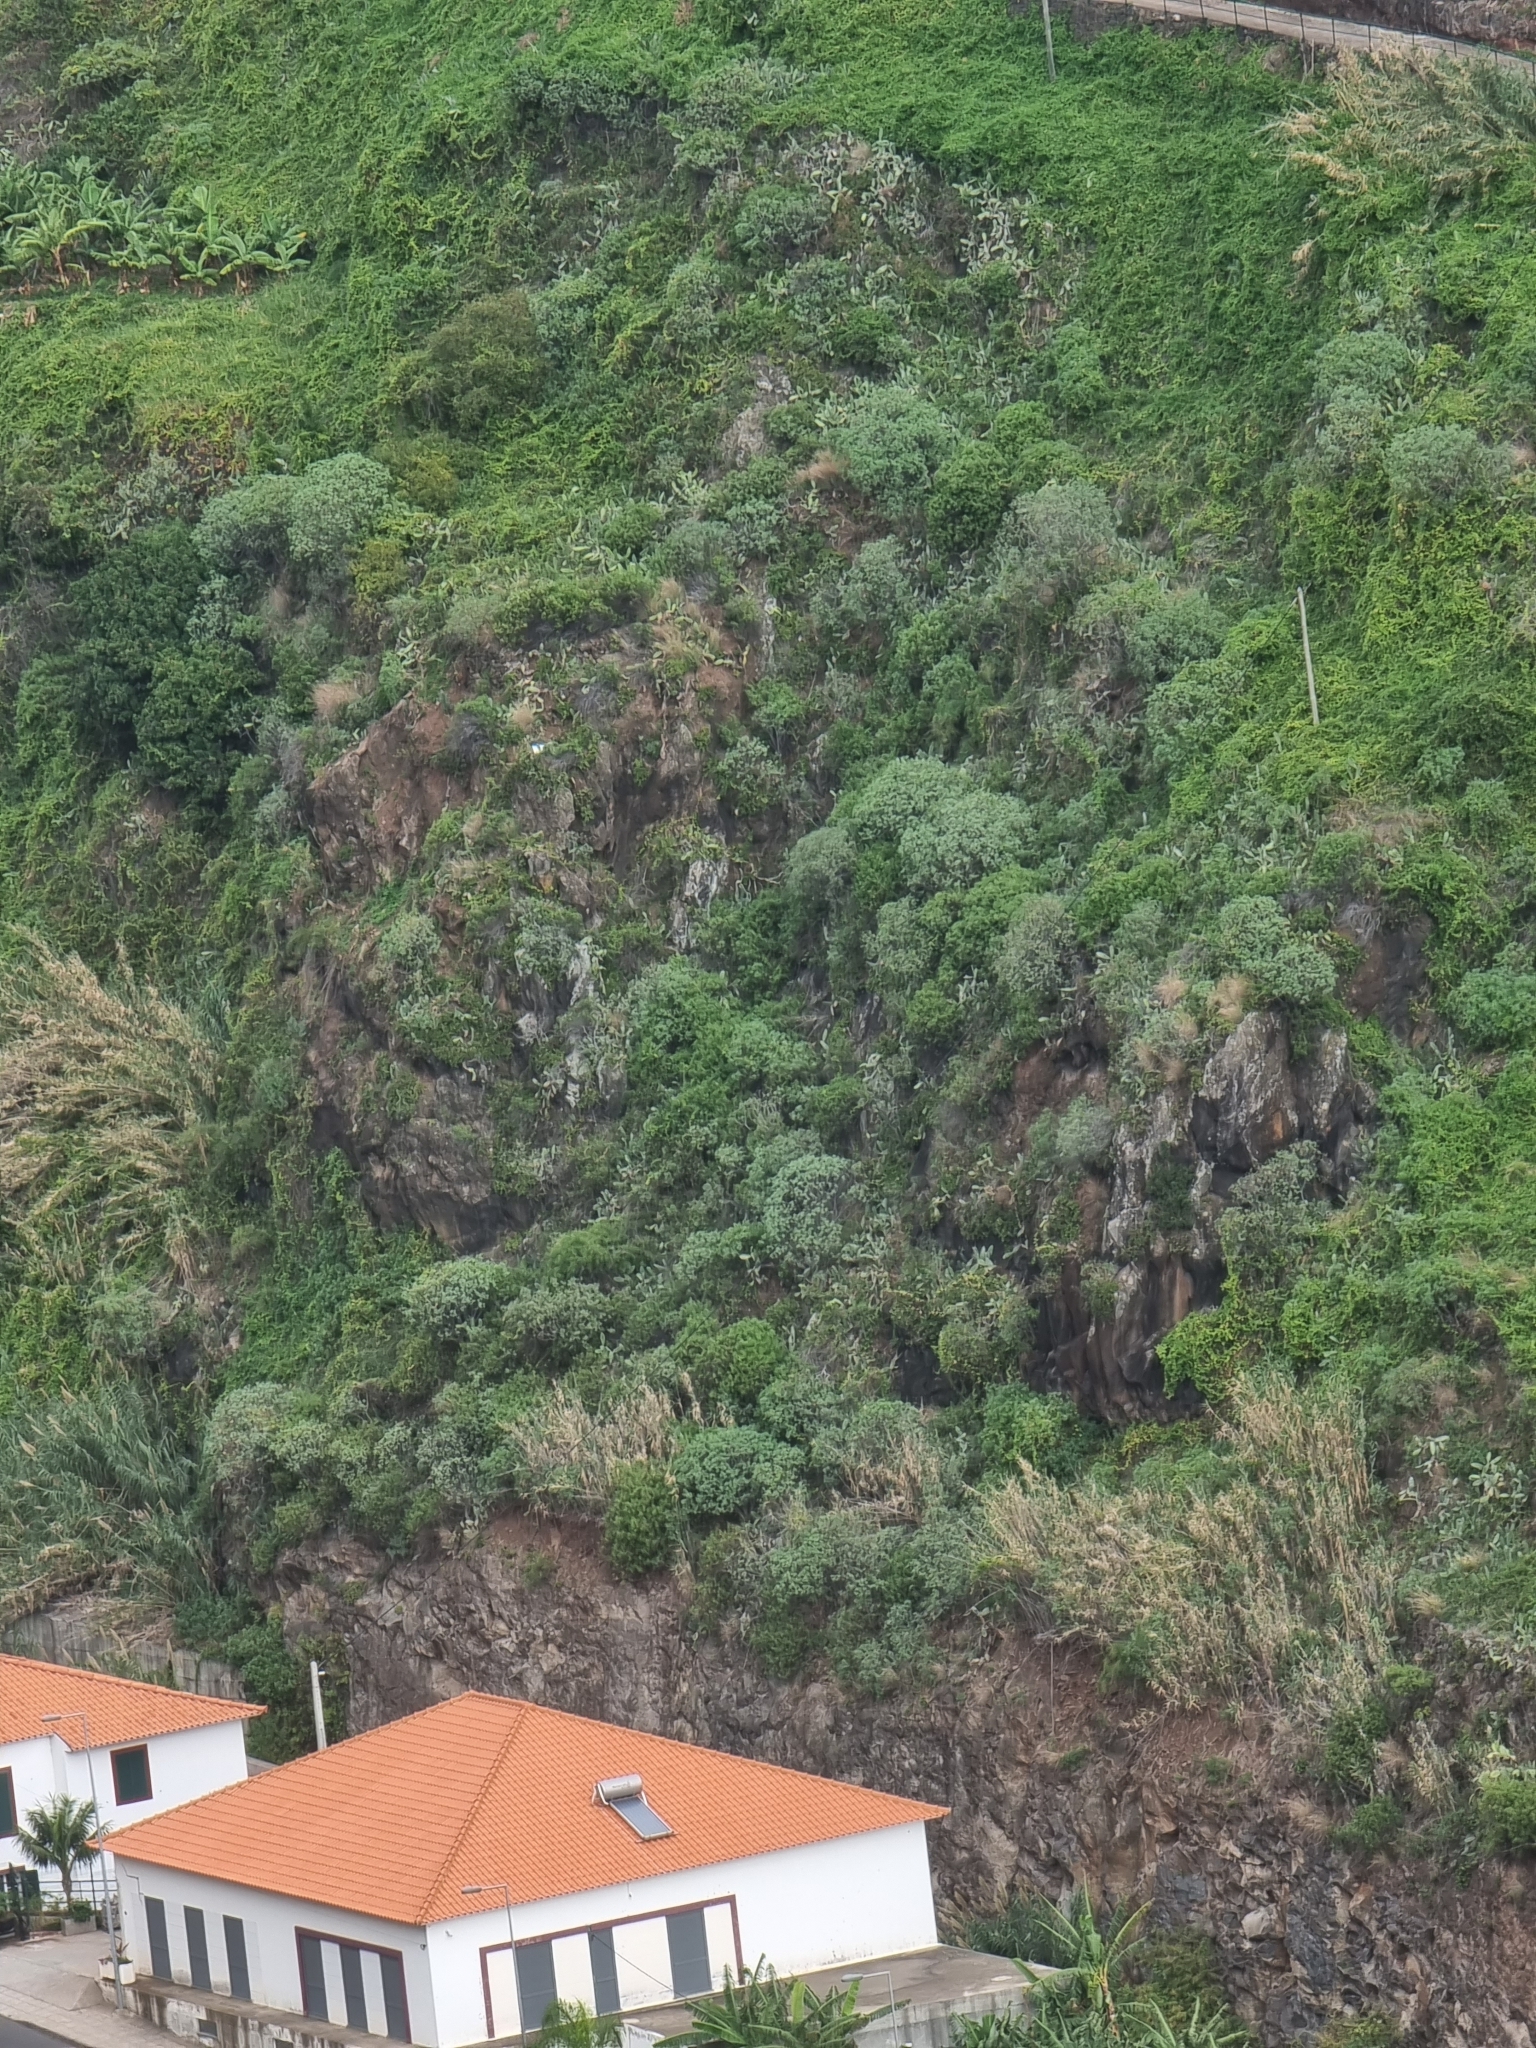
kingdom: Plantae
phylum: Tracheophyta
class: Magnoliopsida
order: Malpighiales
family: Euphorbiaceae
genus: Euphorbia
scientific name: Euphorbia piscatoria
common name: Fish-stunning spurge
